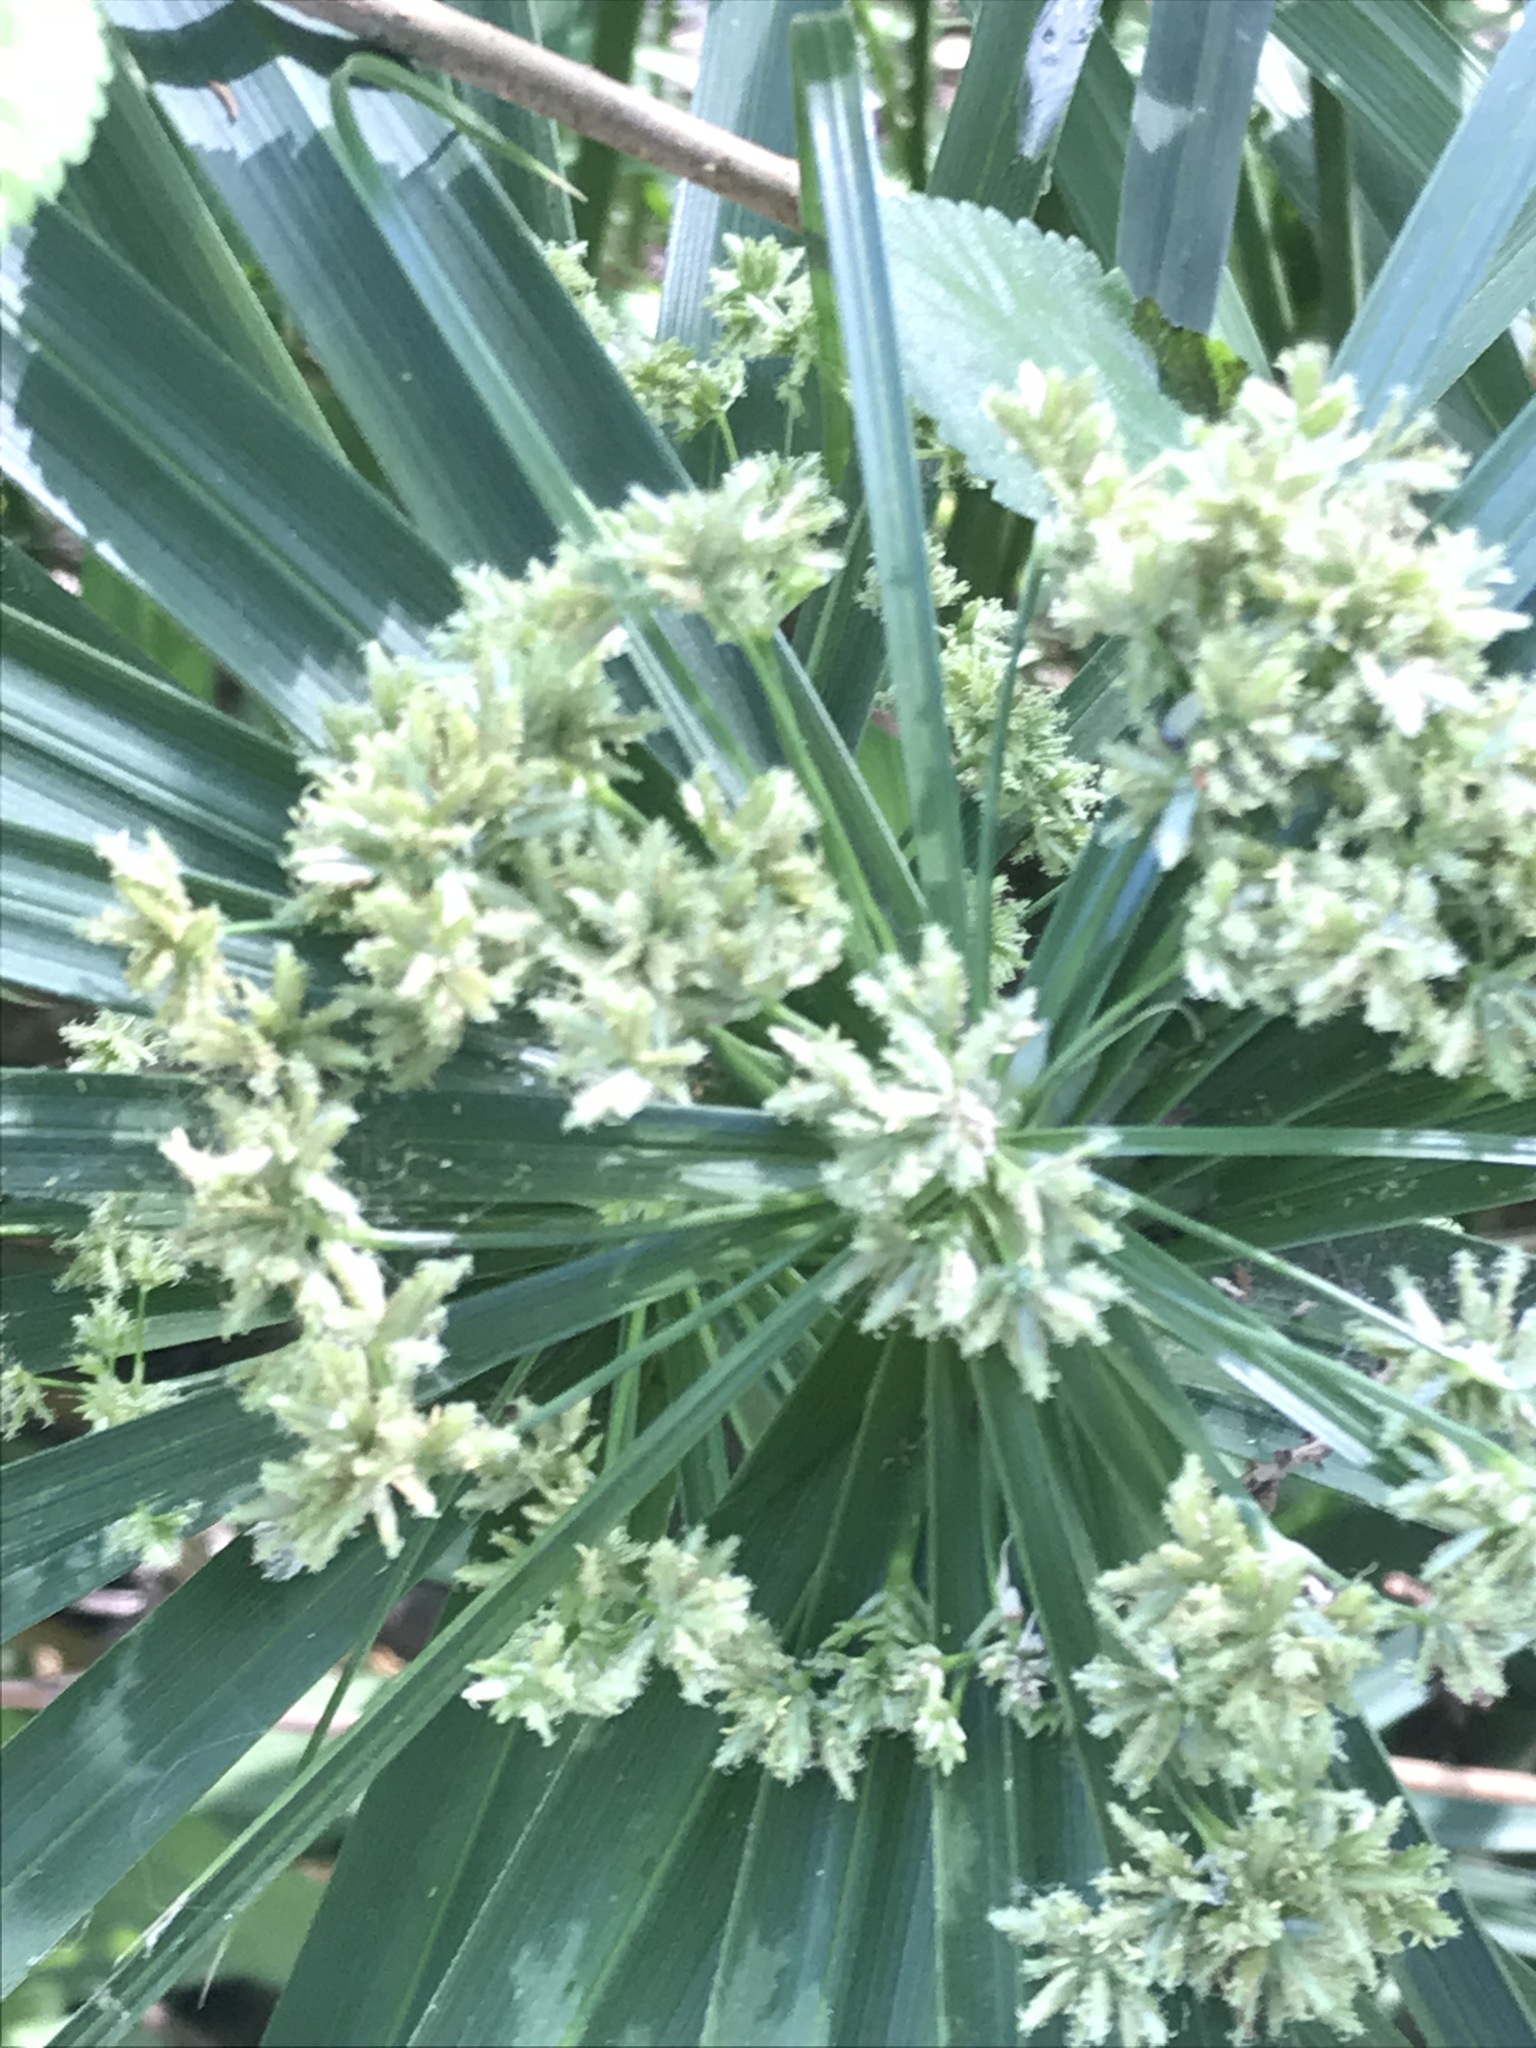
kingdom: Plantae
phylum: Tracheophyta
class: Liliopsida
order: Poales
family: Cyperaceae
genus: Cyperus
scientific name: Cyperus alternifolius
